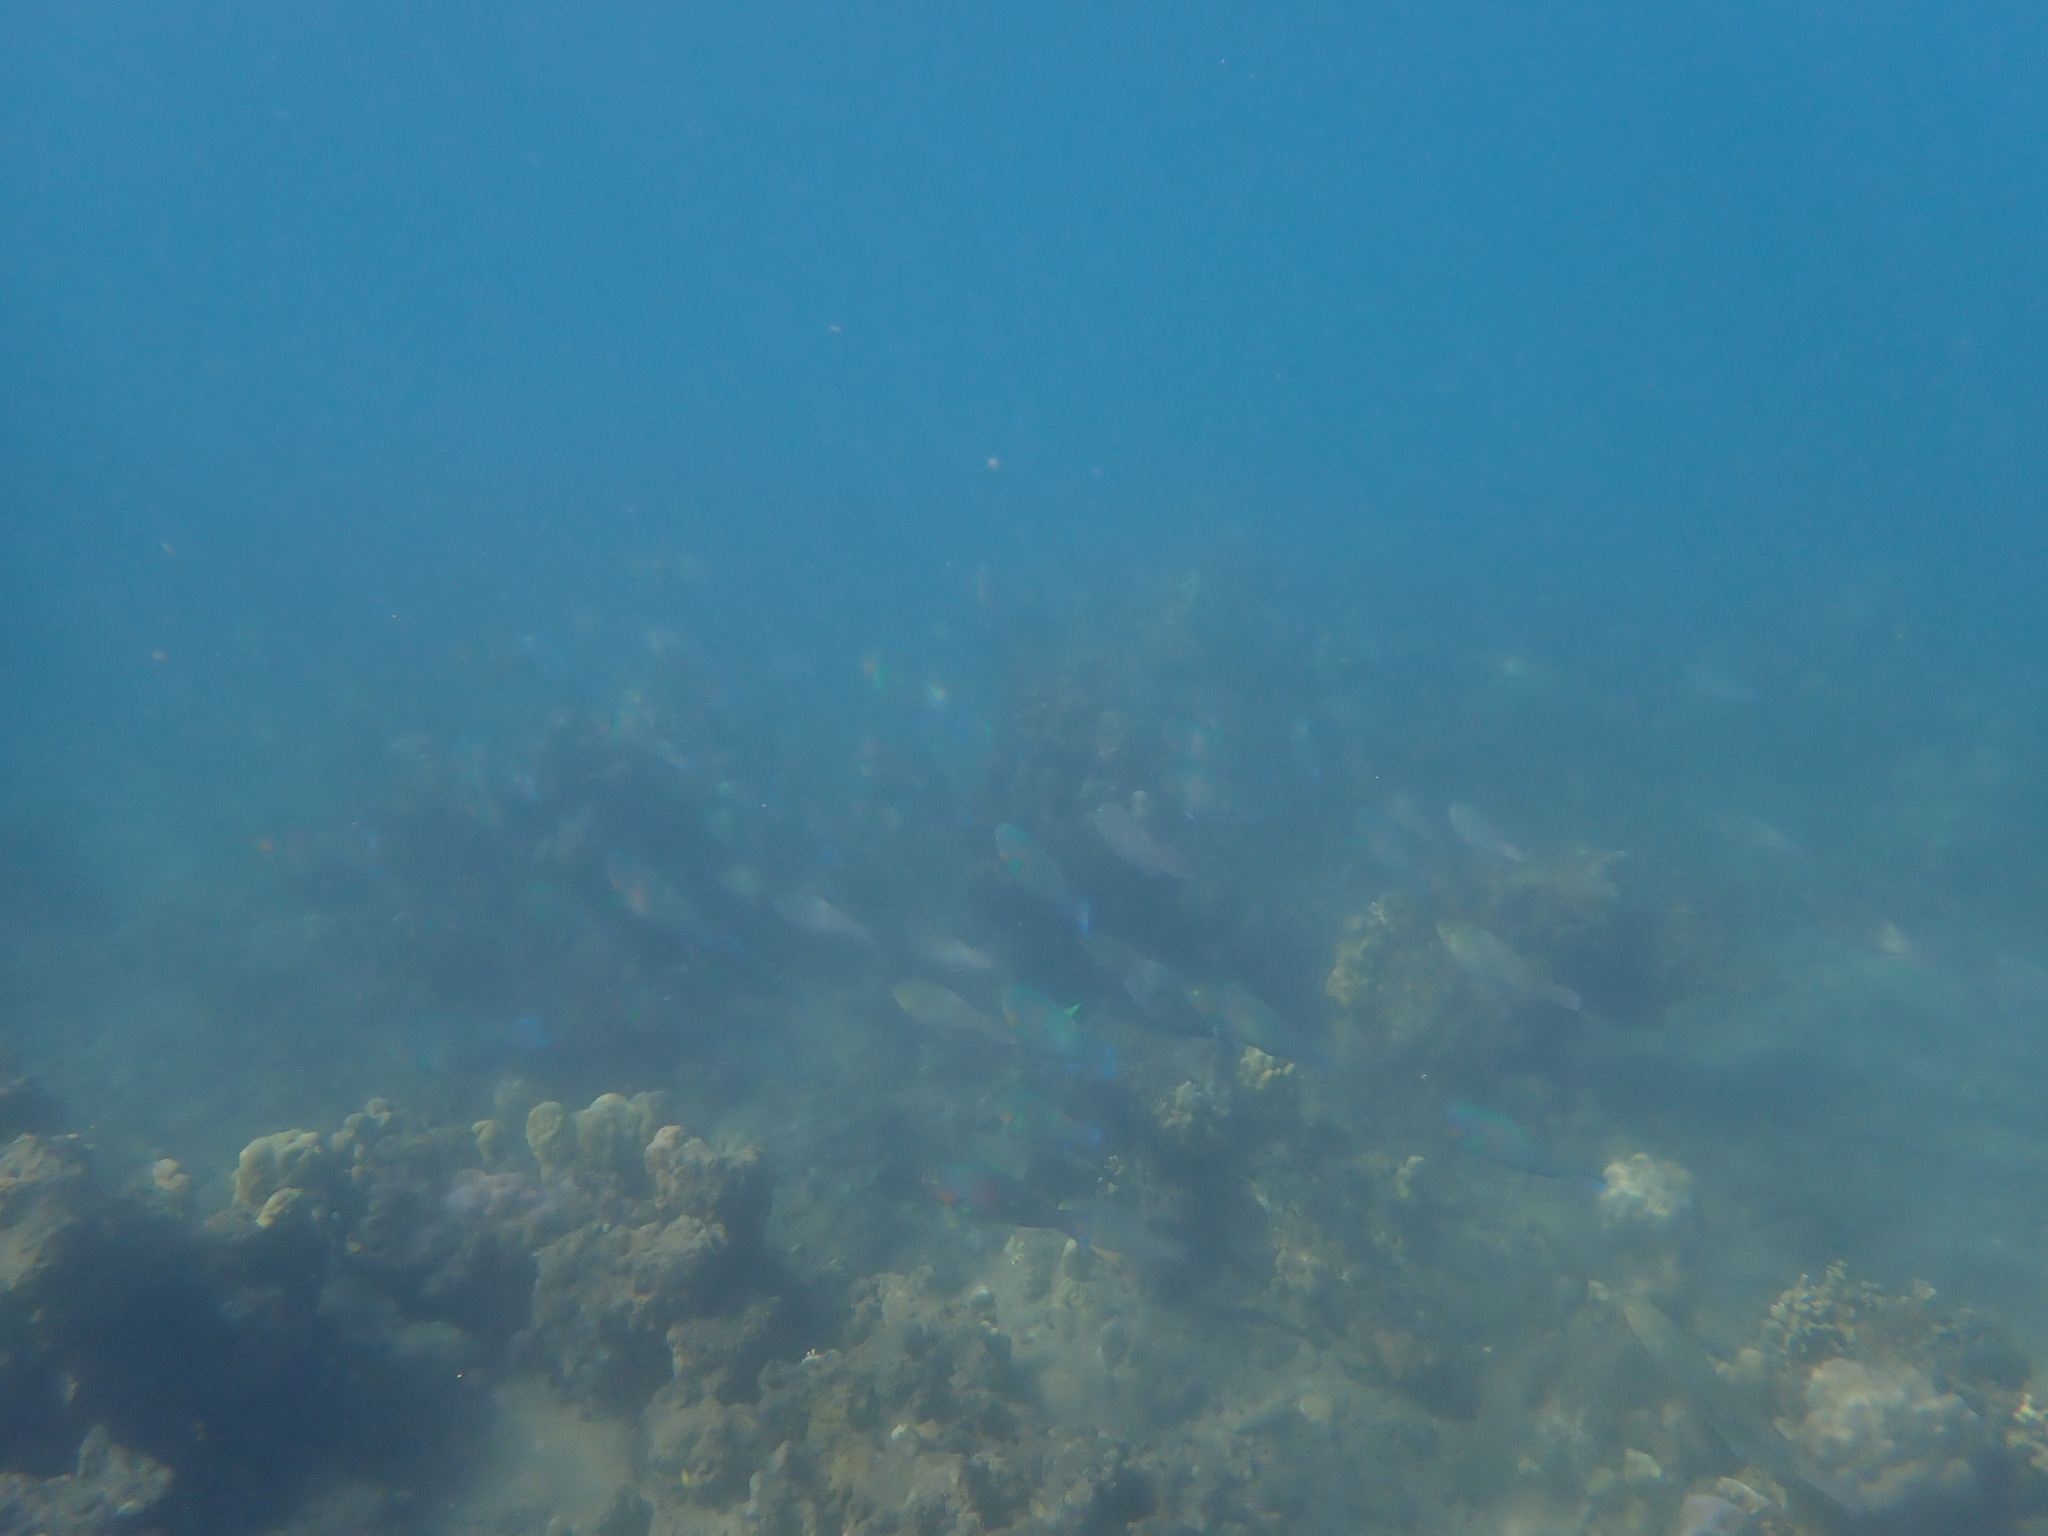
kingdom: Animalia
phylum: Chordata
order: Perciformes
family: Scaridae
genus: Scarus
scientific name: Scarus rivulatus
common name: Surf parrotfish
